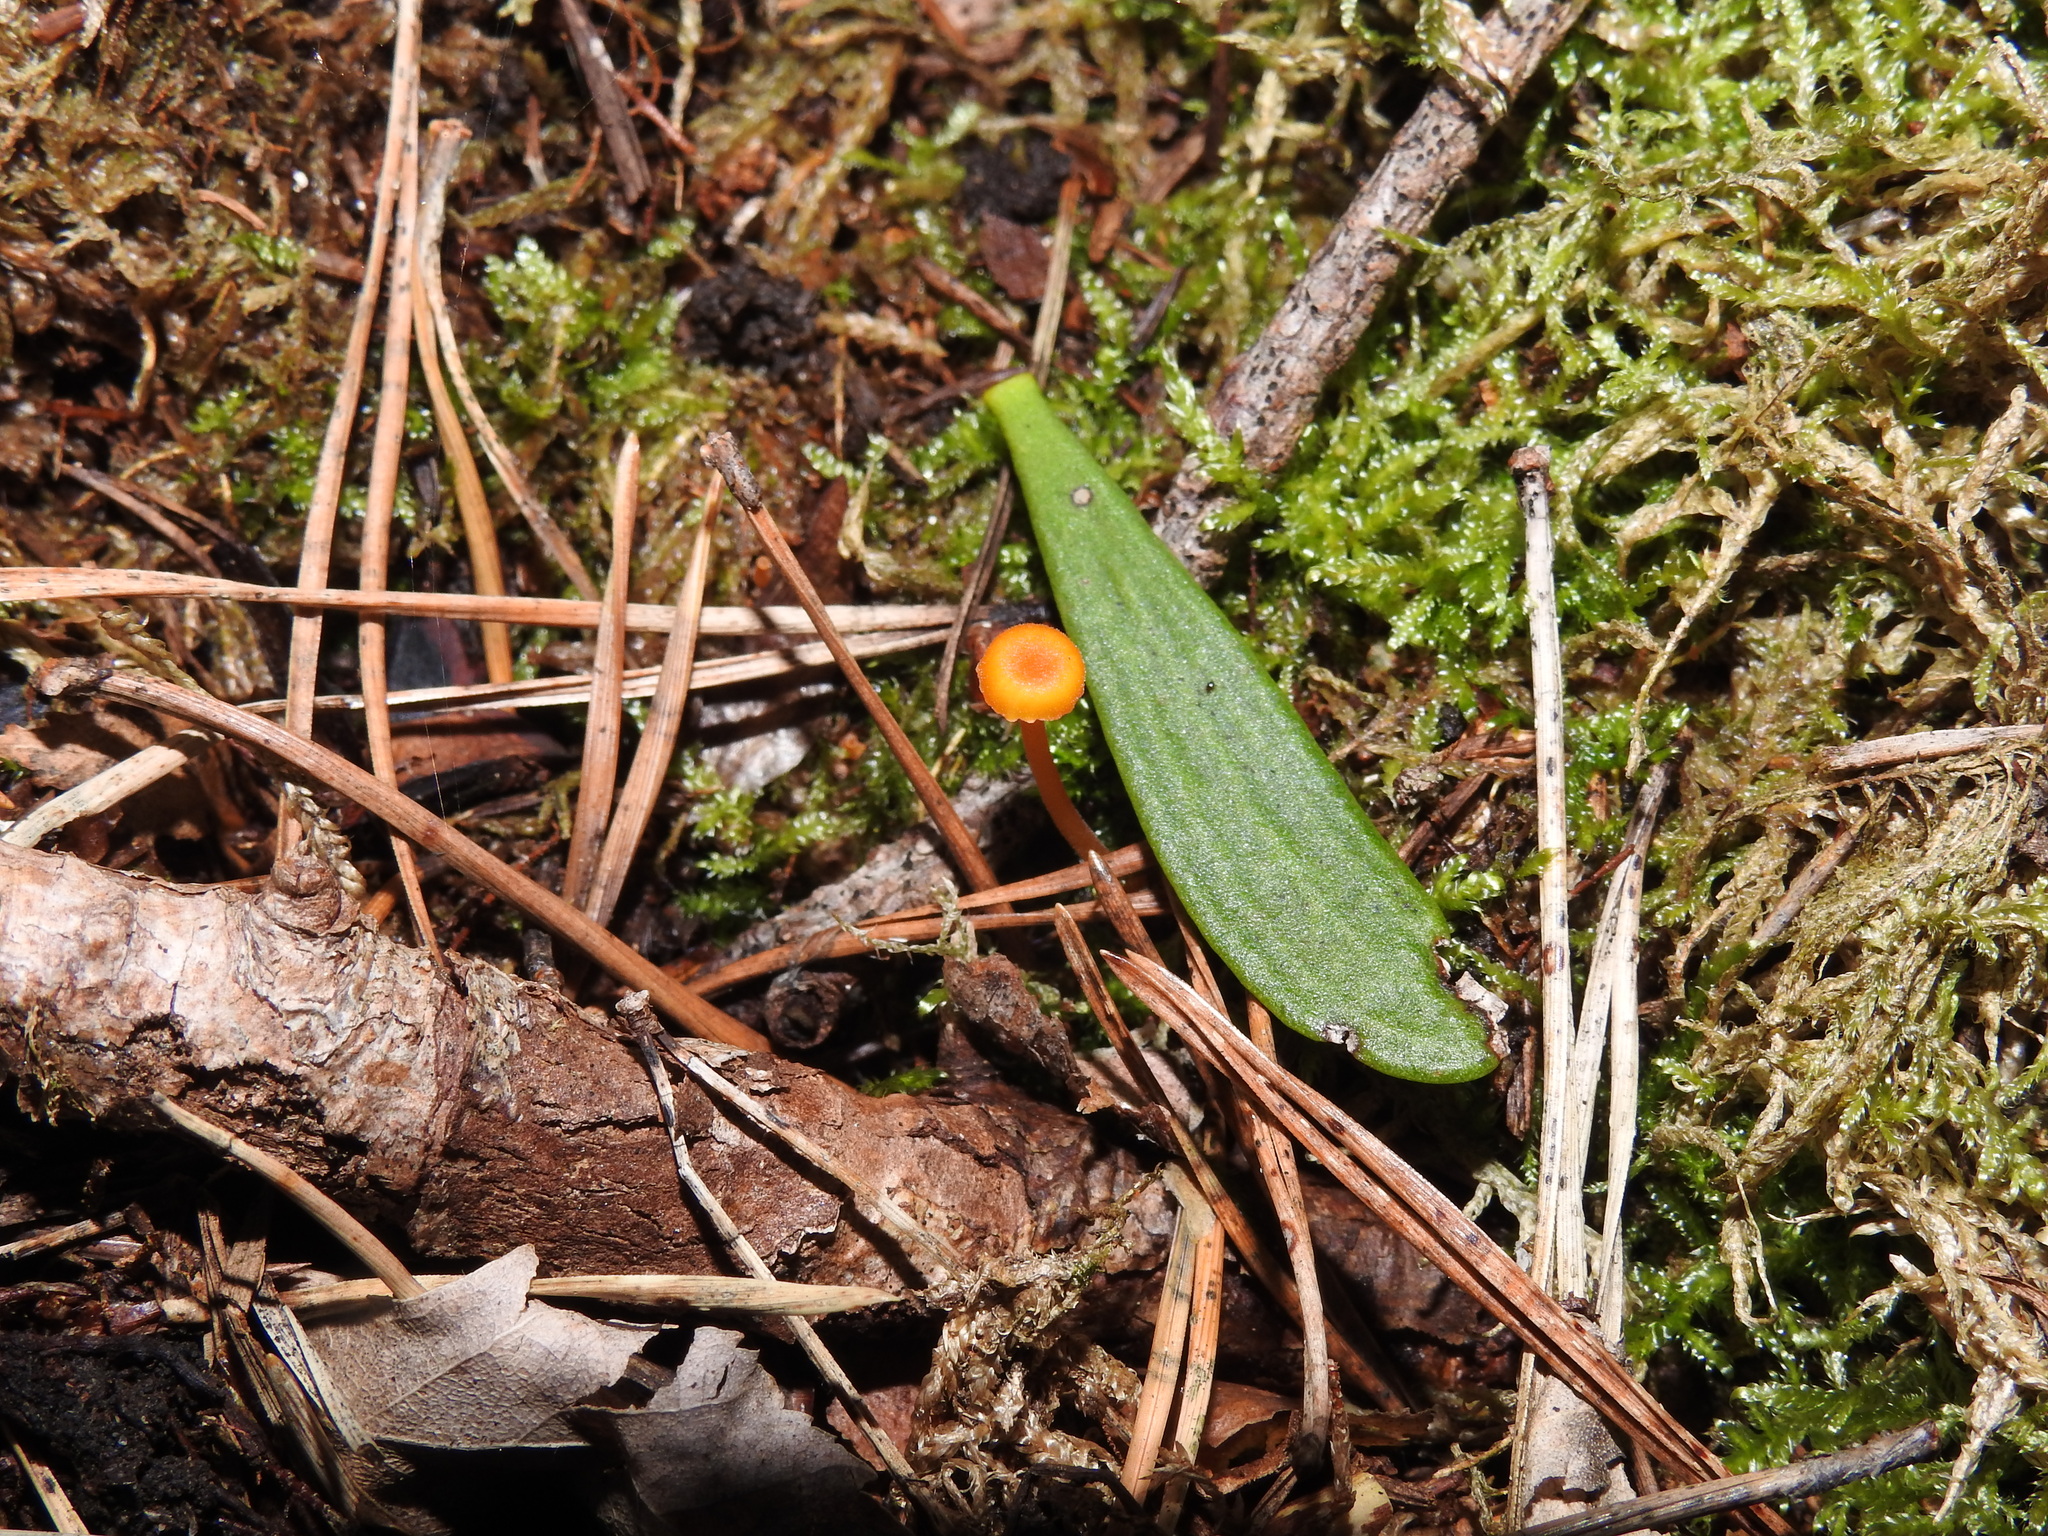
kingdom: Fungi
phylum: Basidiomycota
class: Agaricomycetes
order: Hymenochaetales
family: Rickenellaceae
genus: Rickenella
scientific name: Rickenella fibula
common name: Orange mosscap
